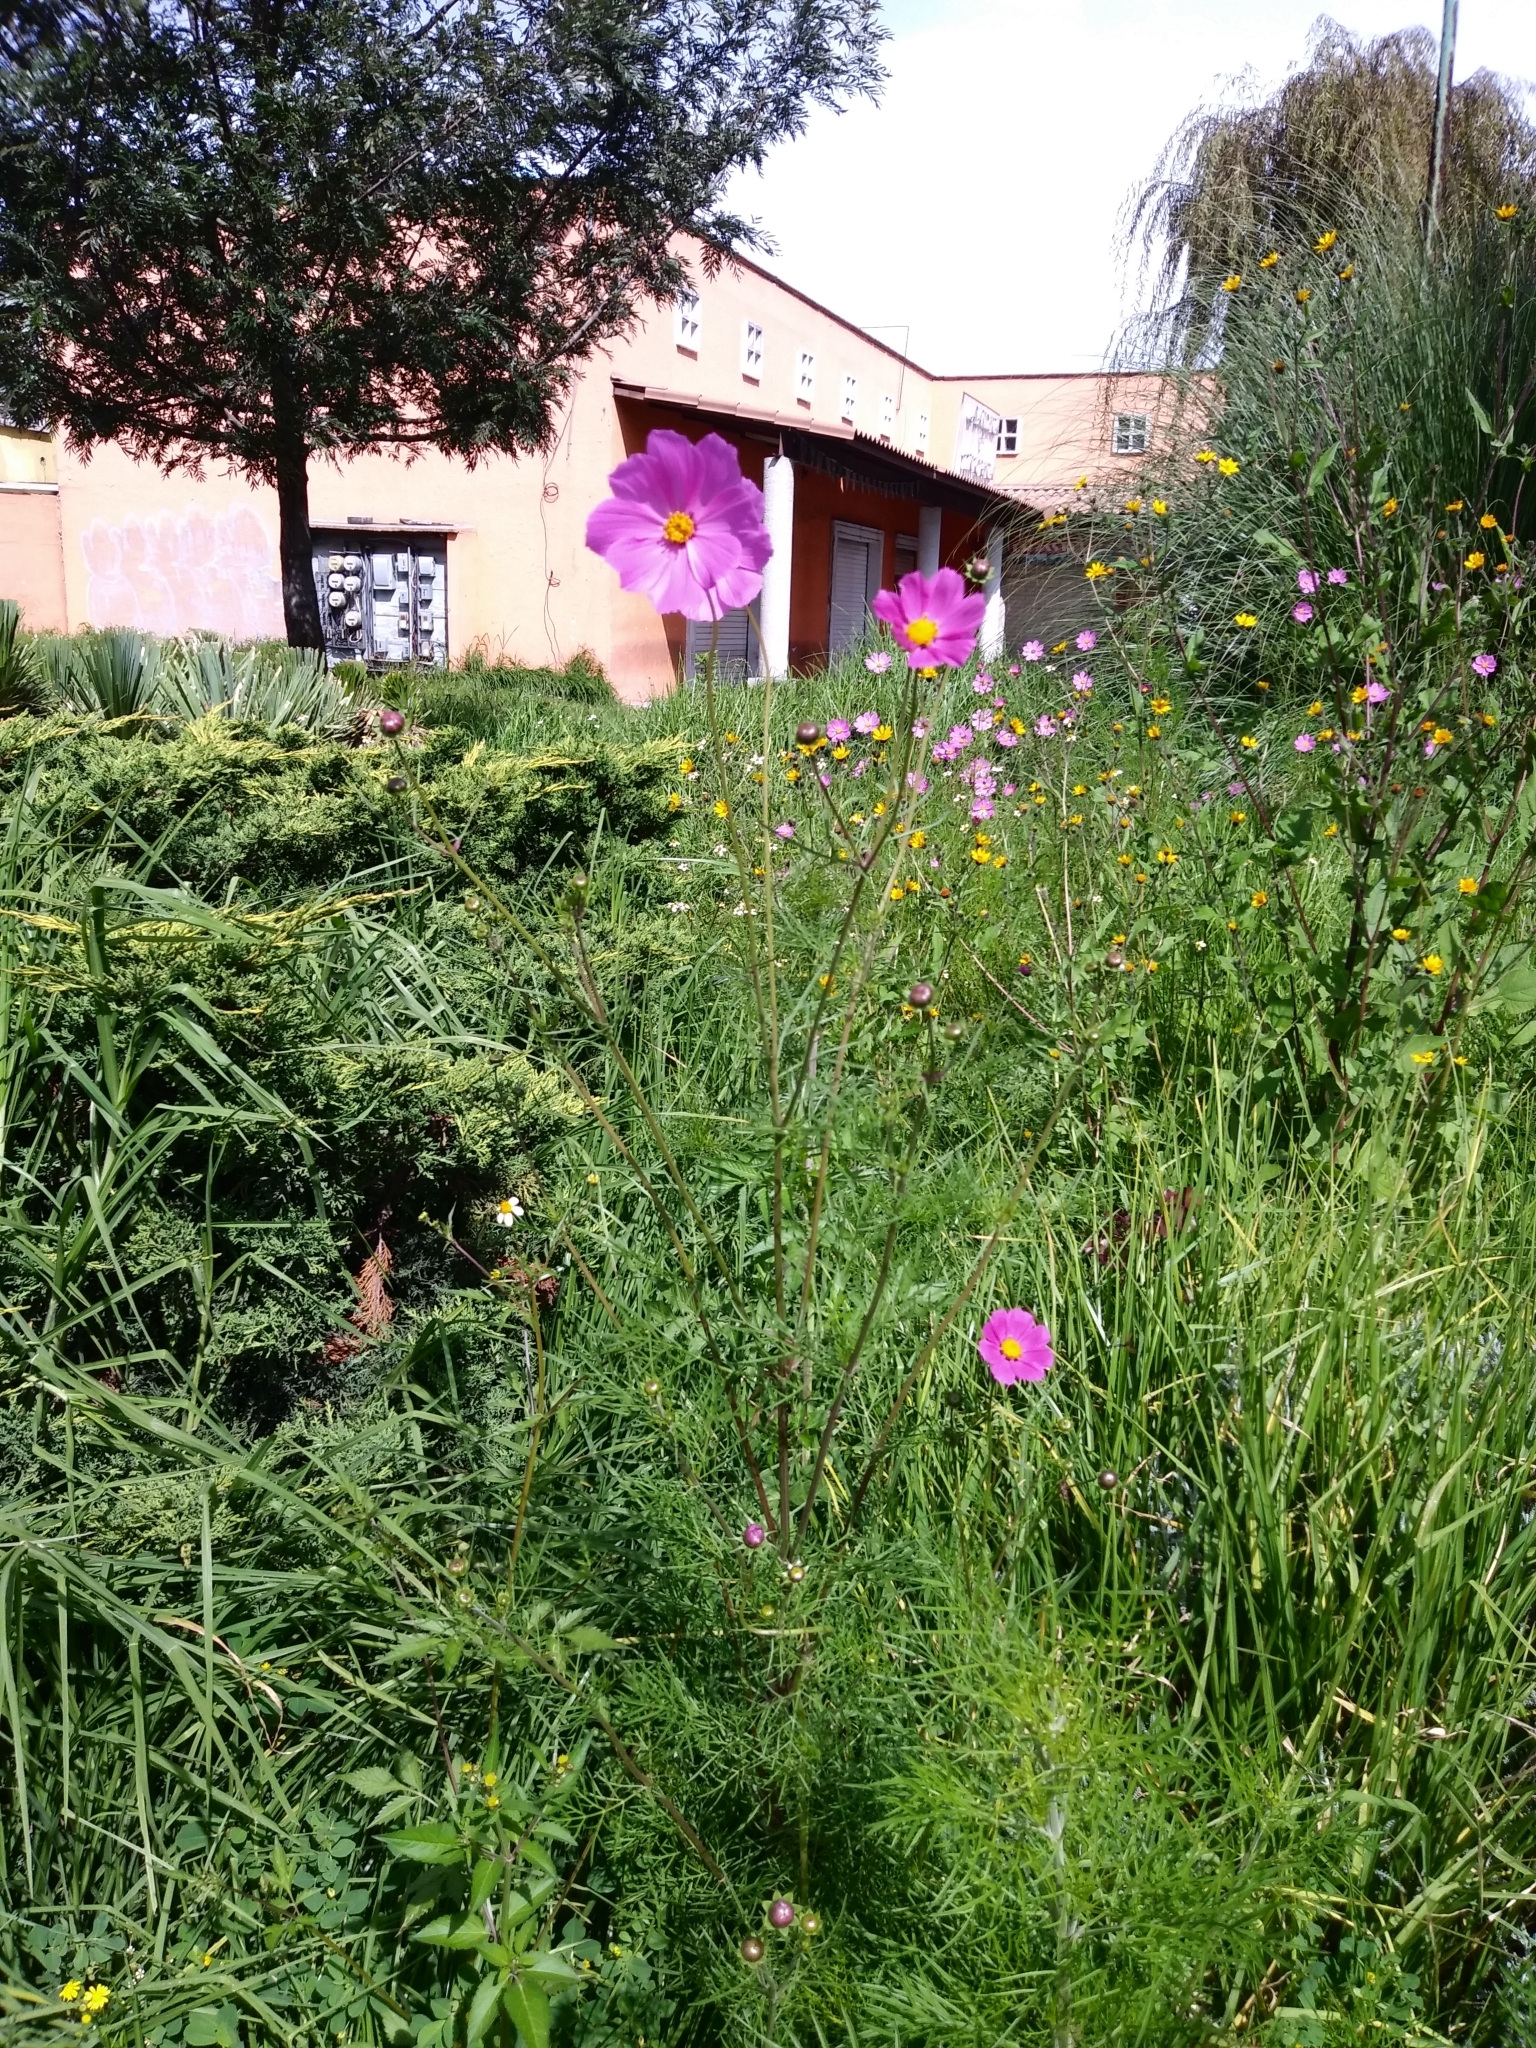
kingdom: Plantae
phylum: Tracheophyta
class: Magnoliopsida
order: Asterales
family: Asteraceae
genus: Cosmos
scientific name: Cosmos bipinnatus
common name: Garden cosmos
